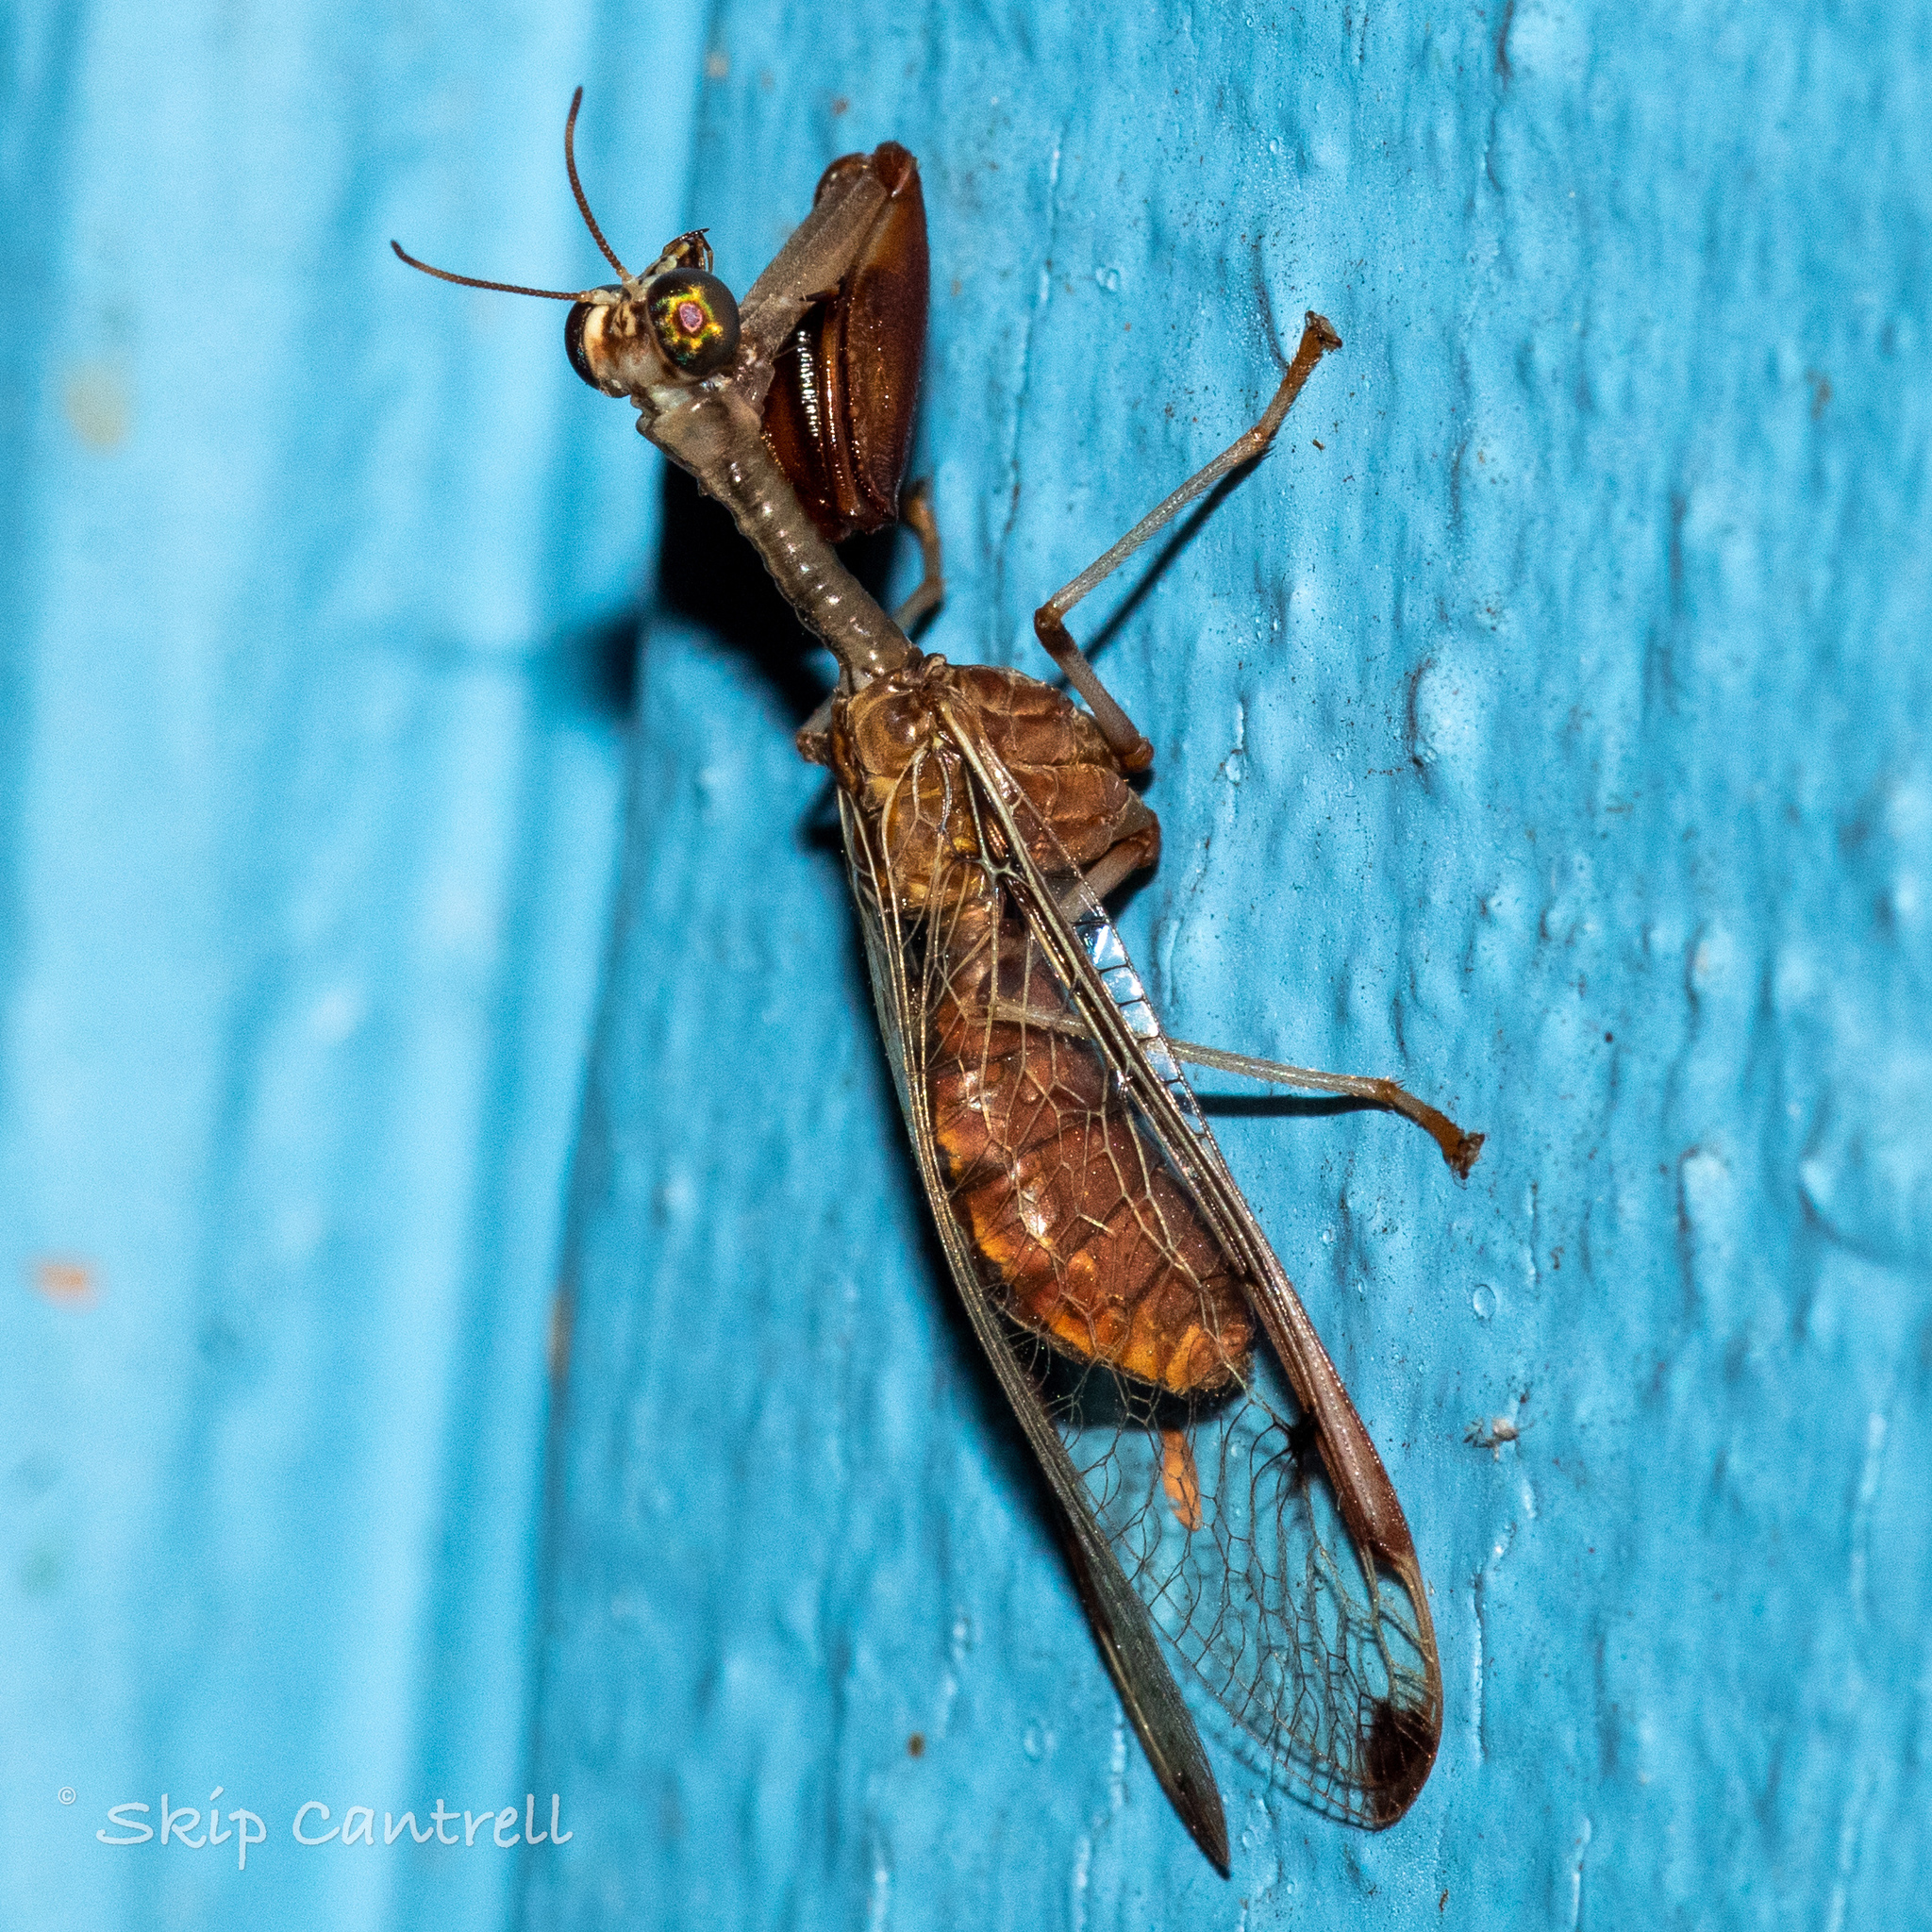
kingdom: Animalia
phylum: Arthropoda
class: Insecta
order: Neuroptera
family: Mantispidae
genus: Dicromantispa
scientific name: Dicromantispa interrupta
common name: Four-spotted mantidfly
